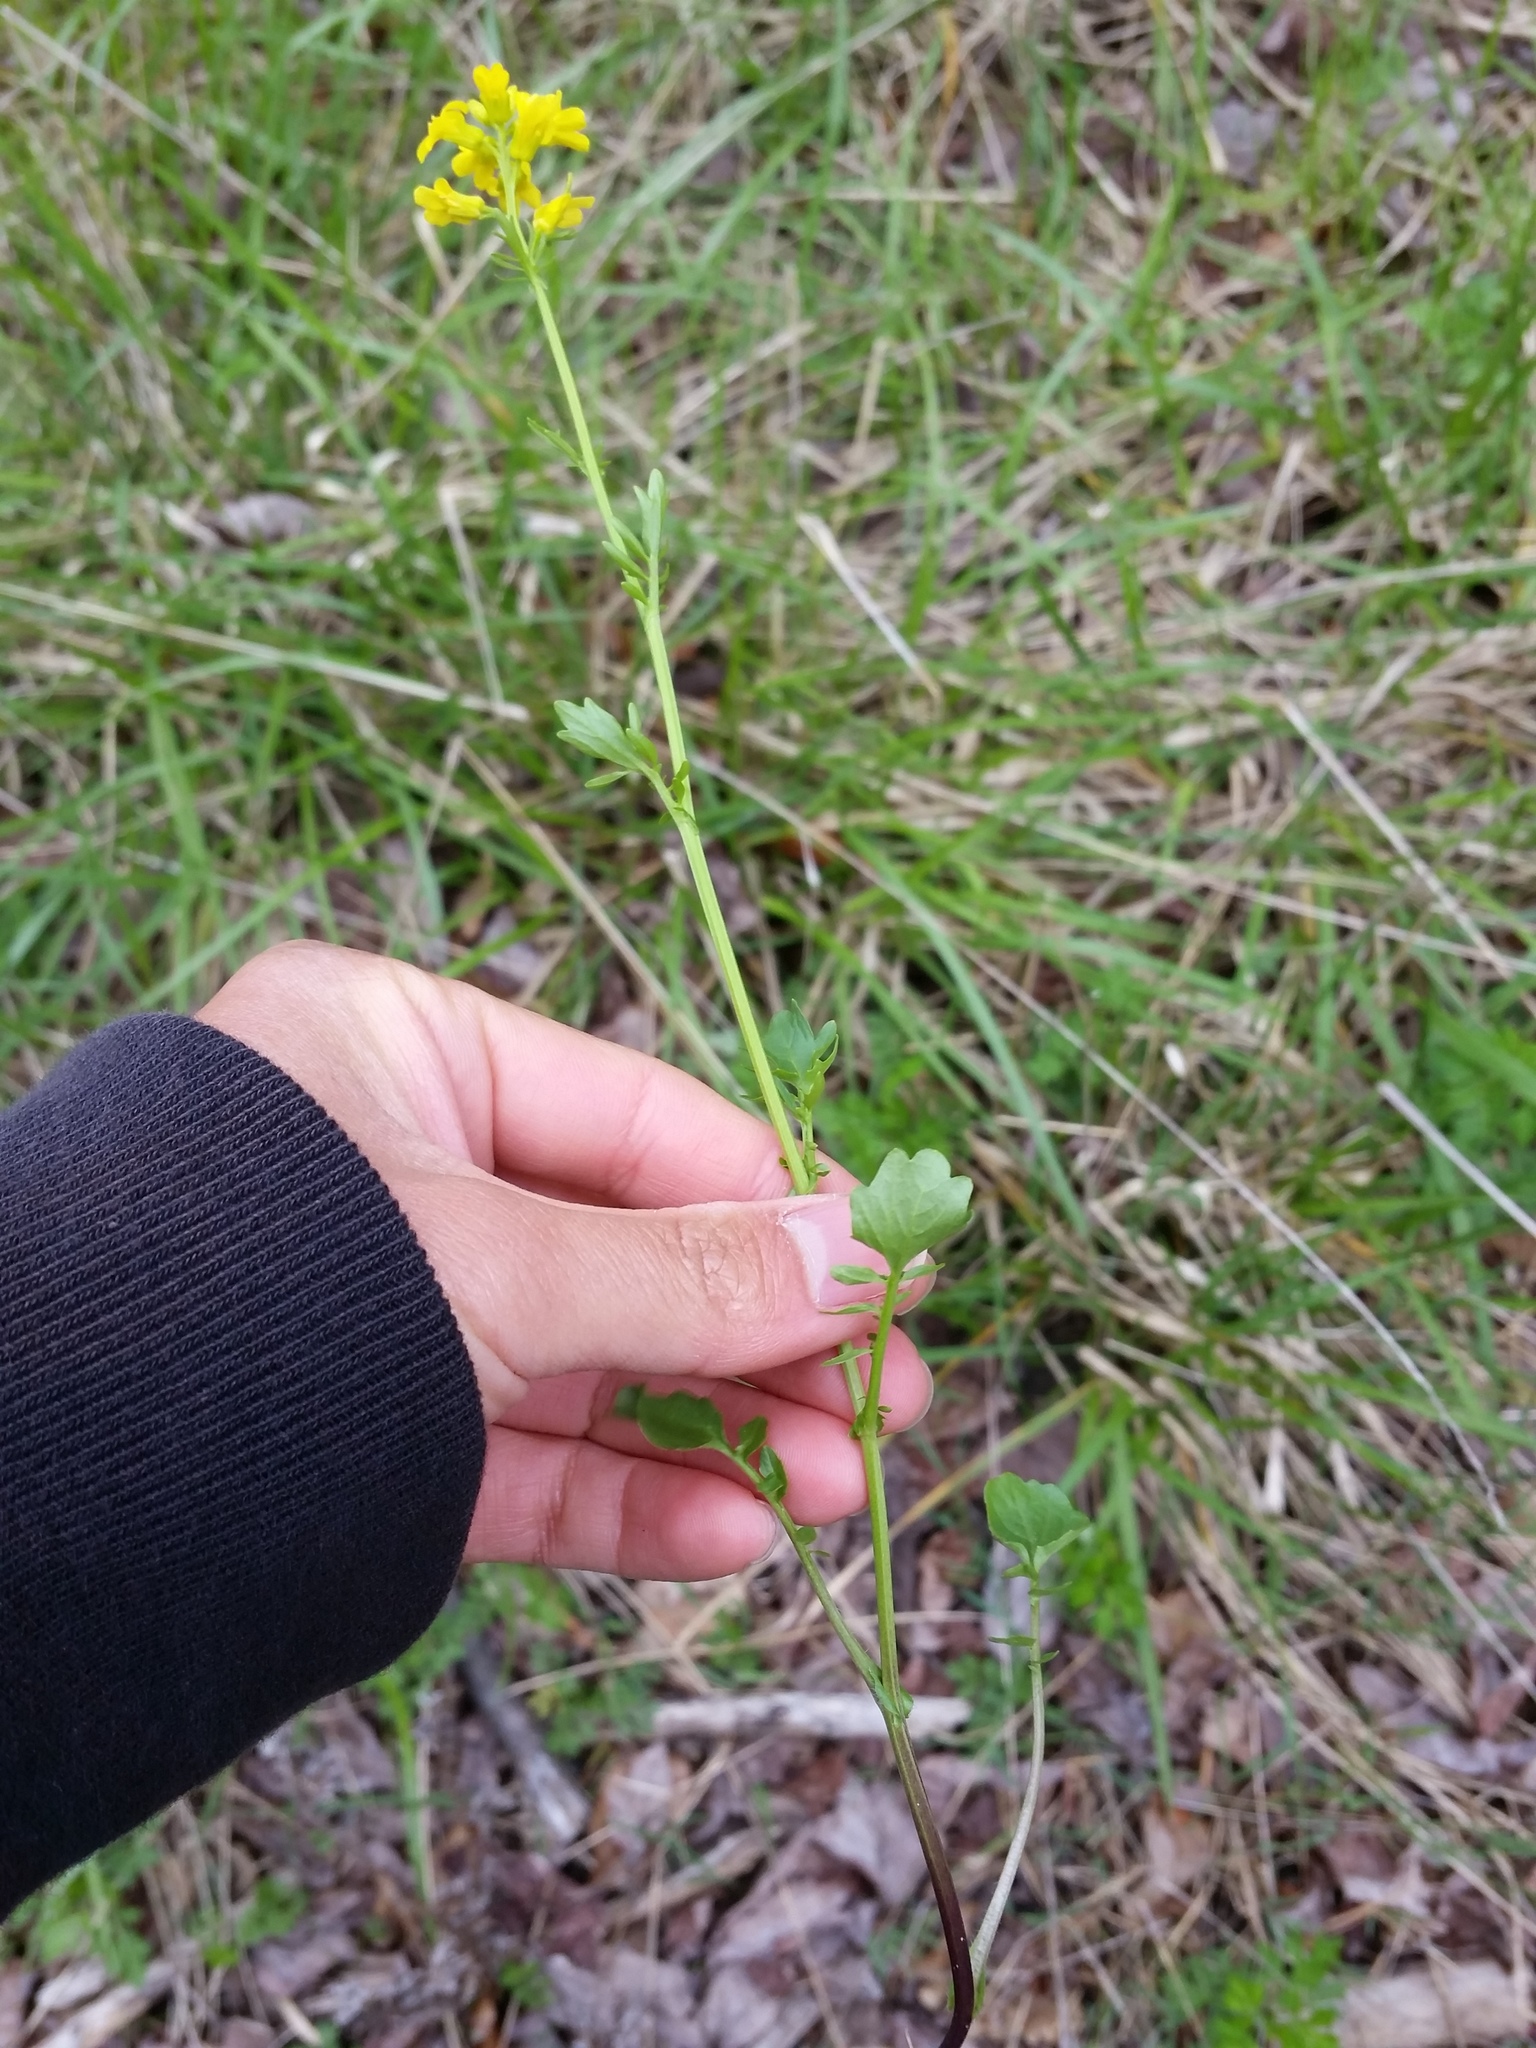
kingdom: Plantae
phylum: Tracheophyta
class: Magnoliopsida
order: Brassicales
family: Brassicaceae
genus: Barbarea
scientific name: Barbarea vulgaris
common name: Cressy-greens
